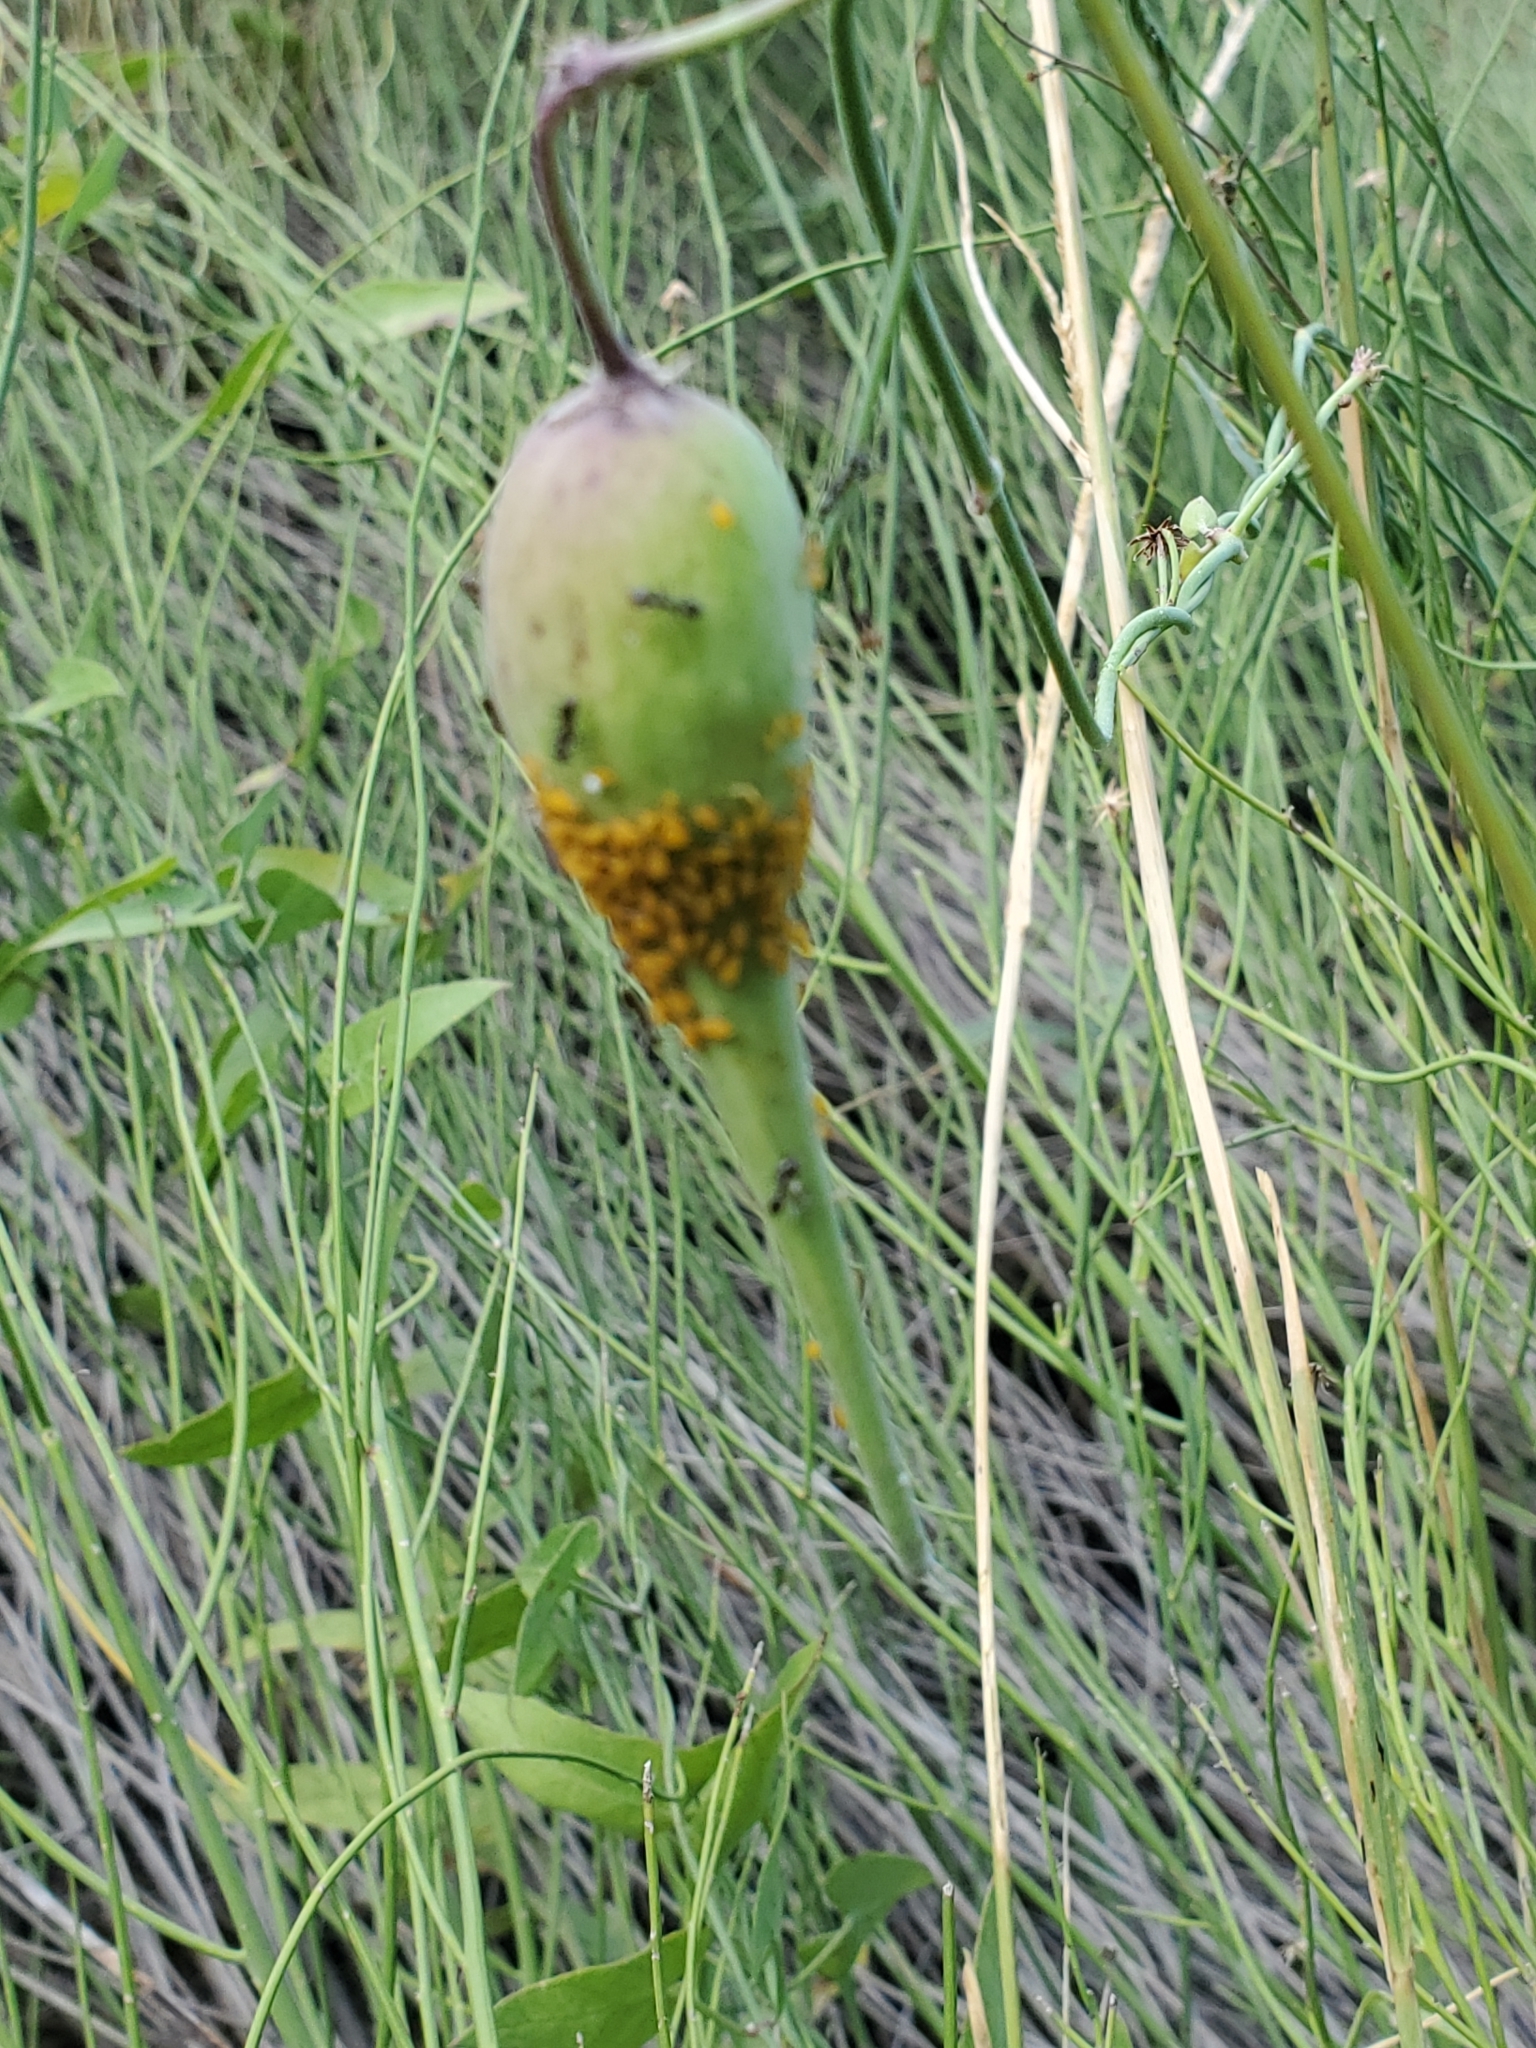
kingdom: Plantae
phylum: Tracheophyta
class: Magnoliopsida
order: Gentianales
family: Apocynaceae
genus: Funastrum
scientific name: Funastrum cynanchoides
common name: Climbing-milkweed
